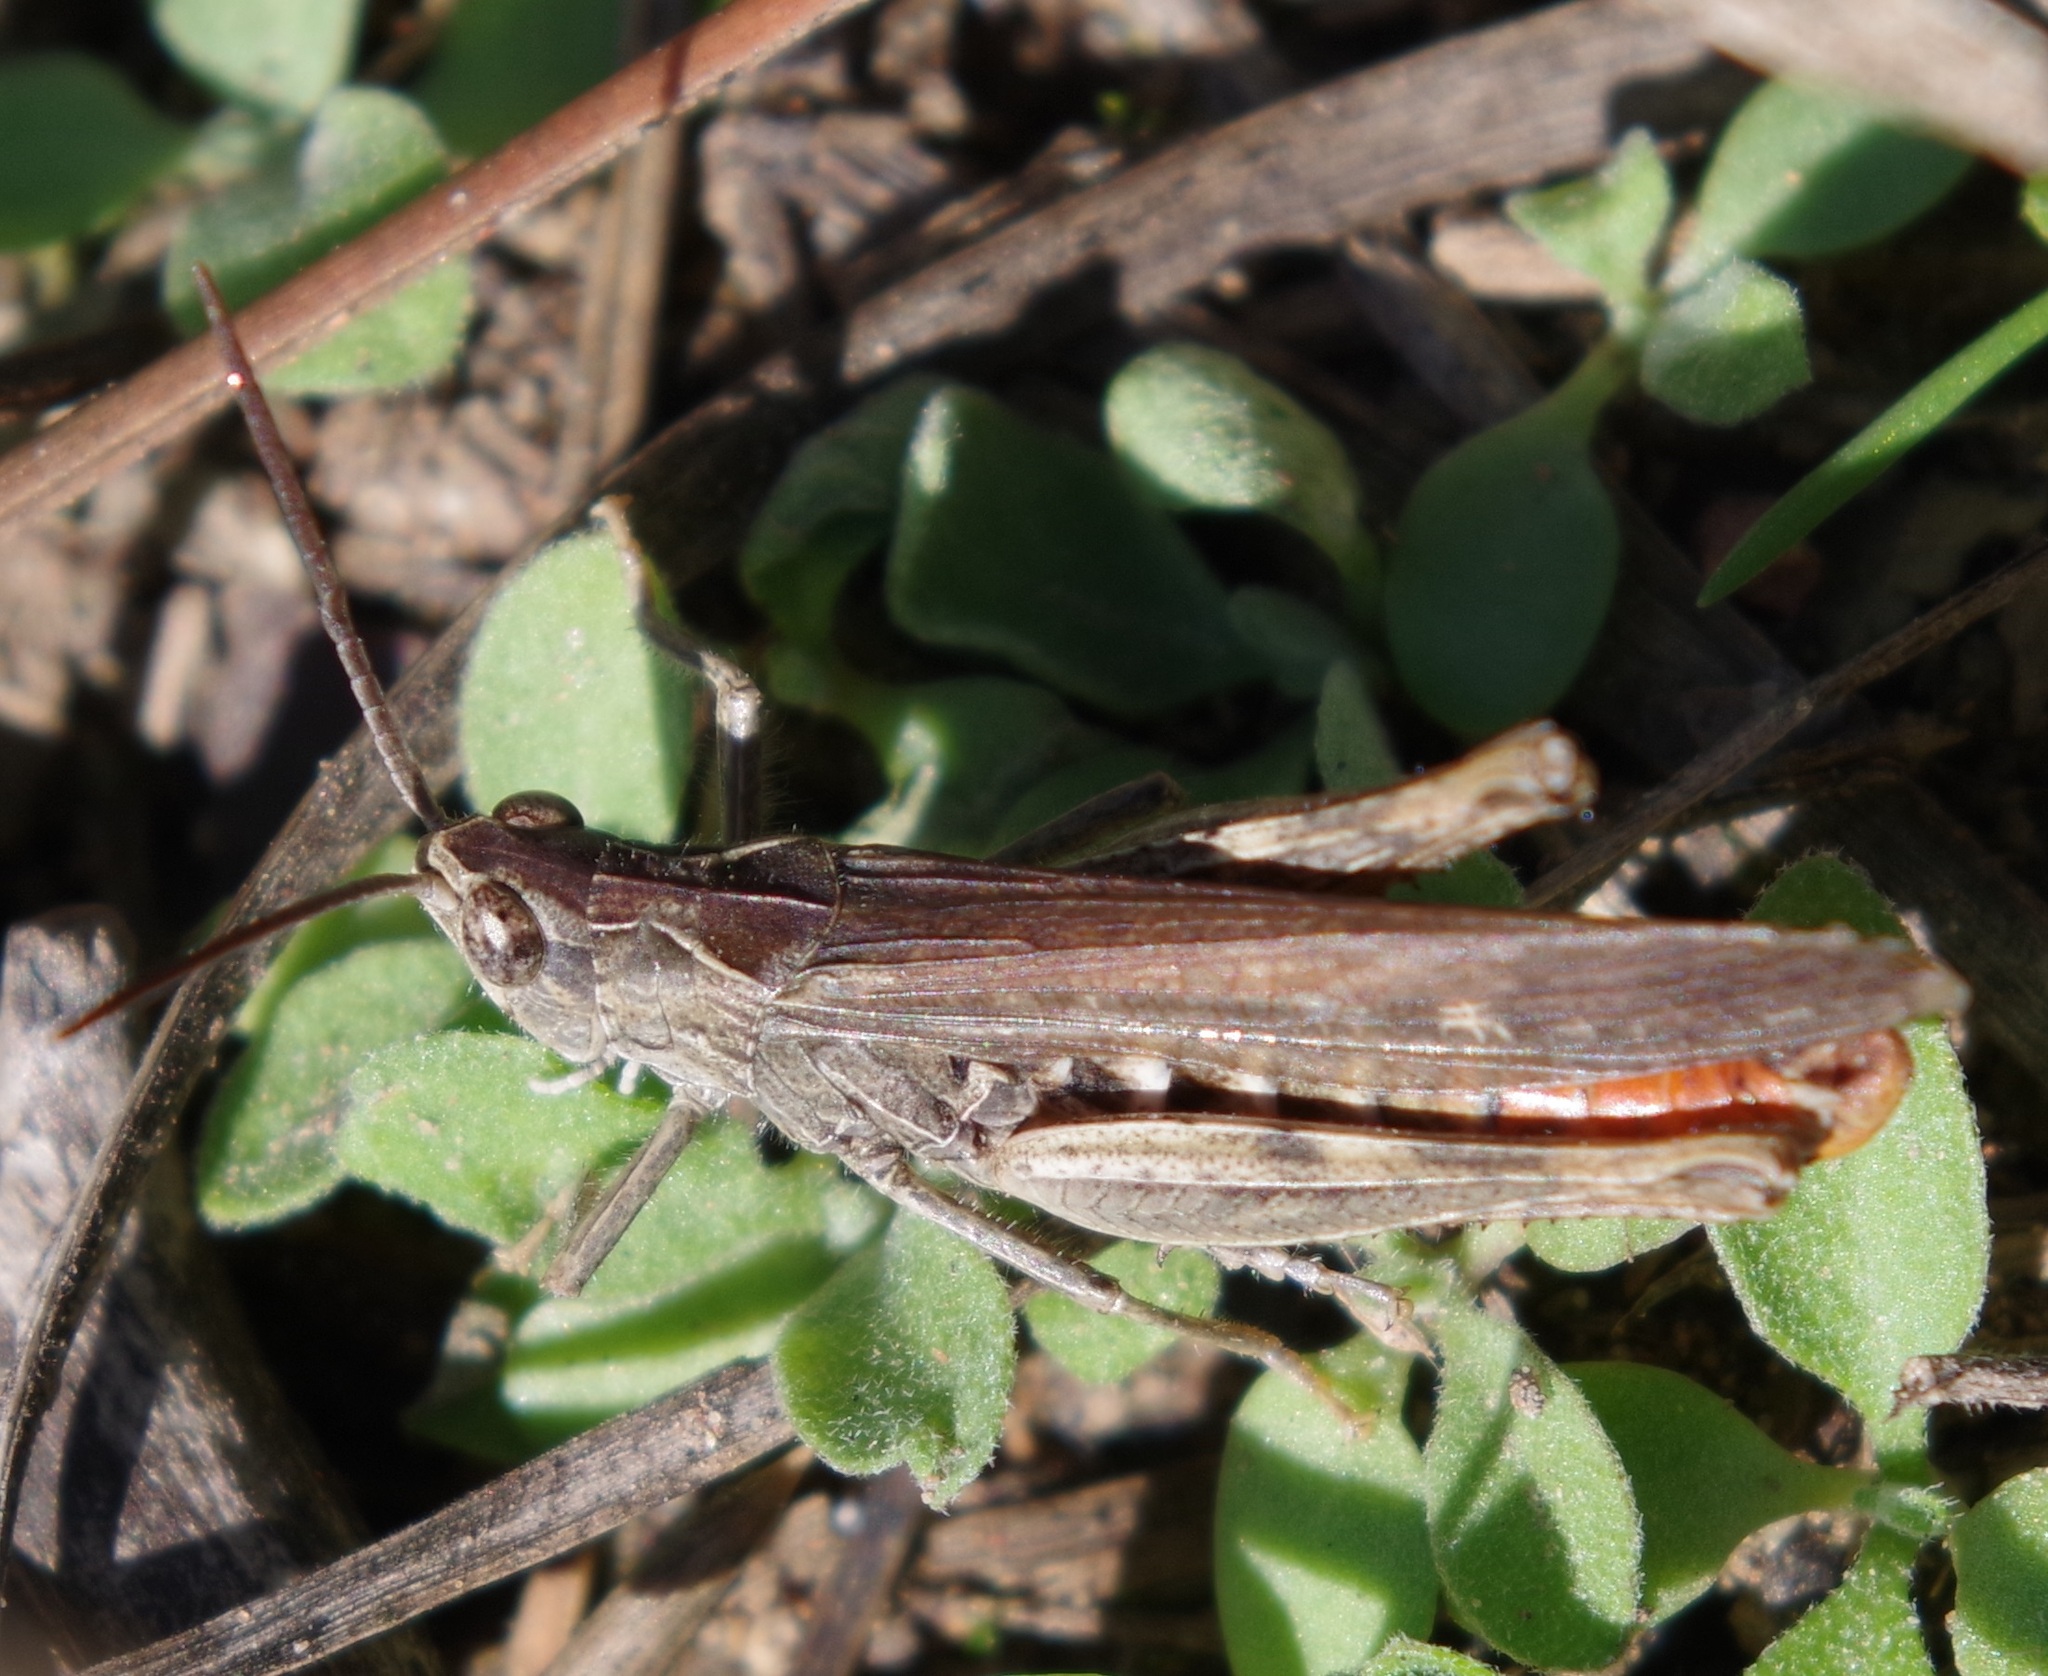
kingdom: Animalia
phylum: Arthropoda
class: Insecta
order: Orthoptera
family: Acrididae
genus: Chorthippus
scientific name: Chorthippus brunneus
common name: Field grasshopper
